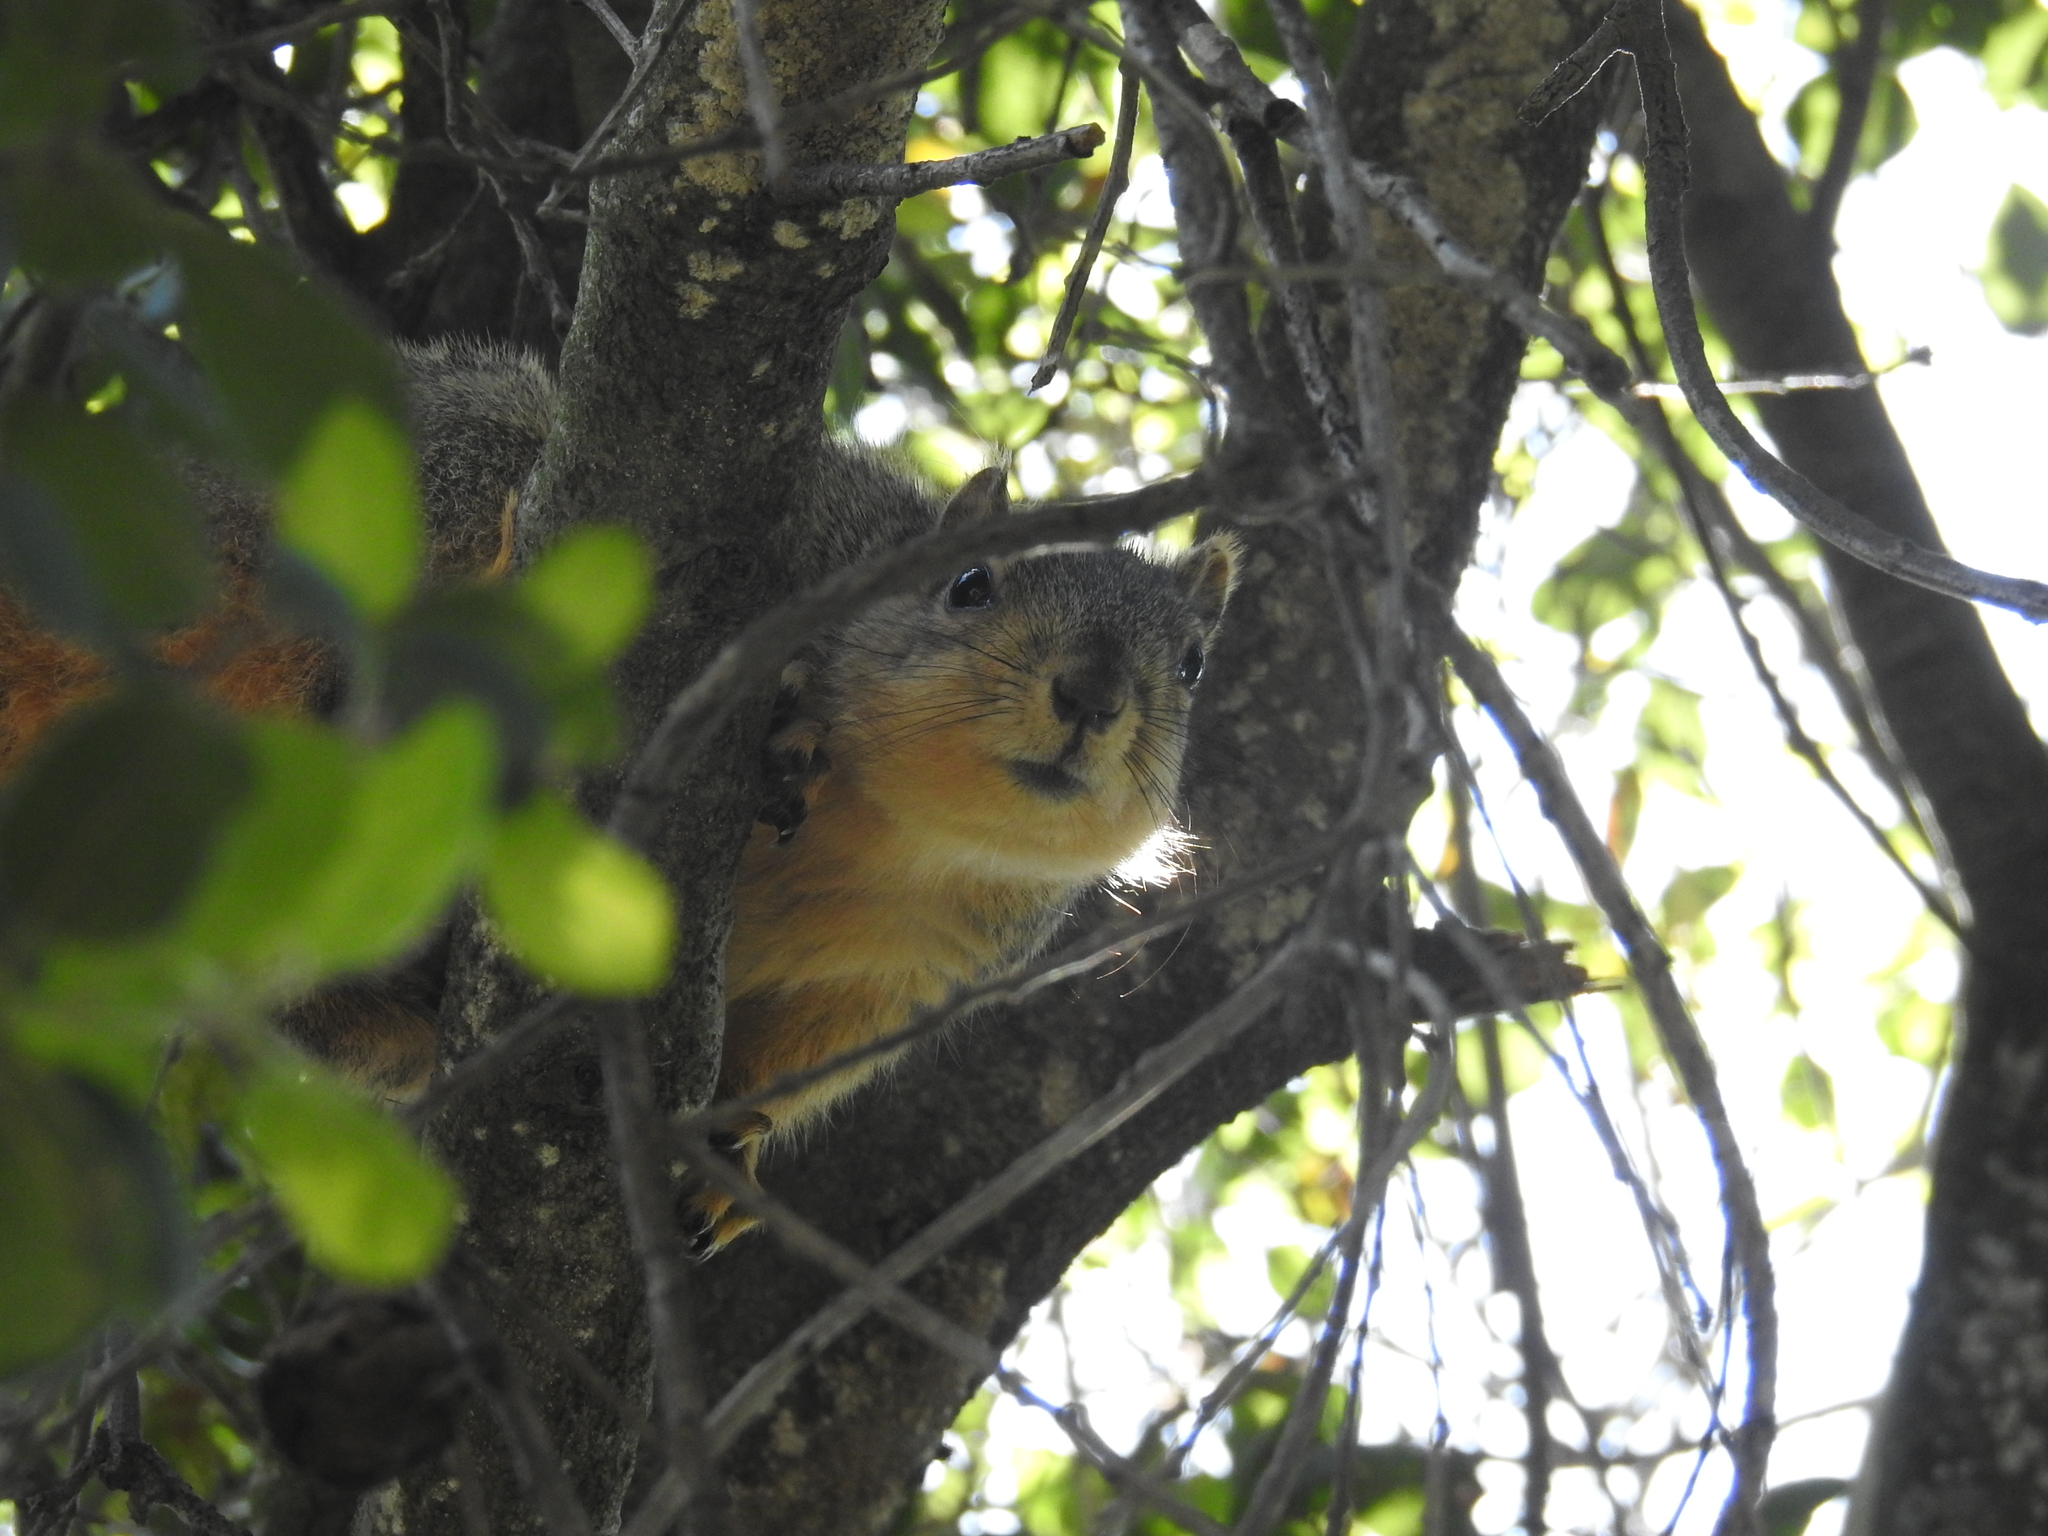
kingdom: Animalia
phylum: Chordata
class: Mammalia
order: Rodentia
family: Sciuridae
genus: Sciurus
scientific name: Sciurus niger
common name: Fox squirrel
